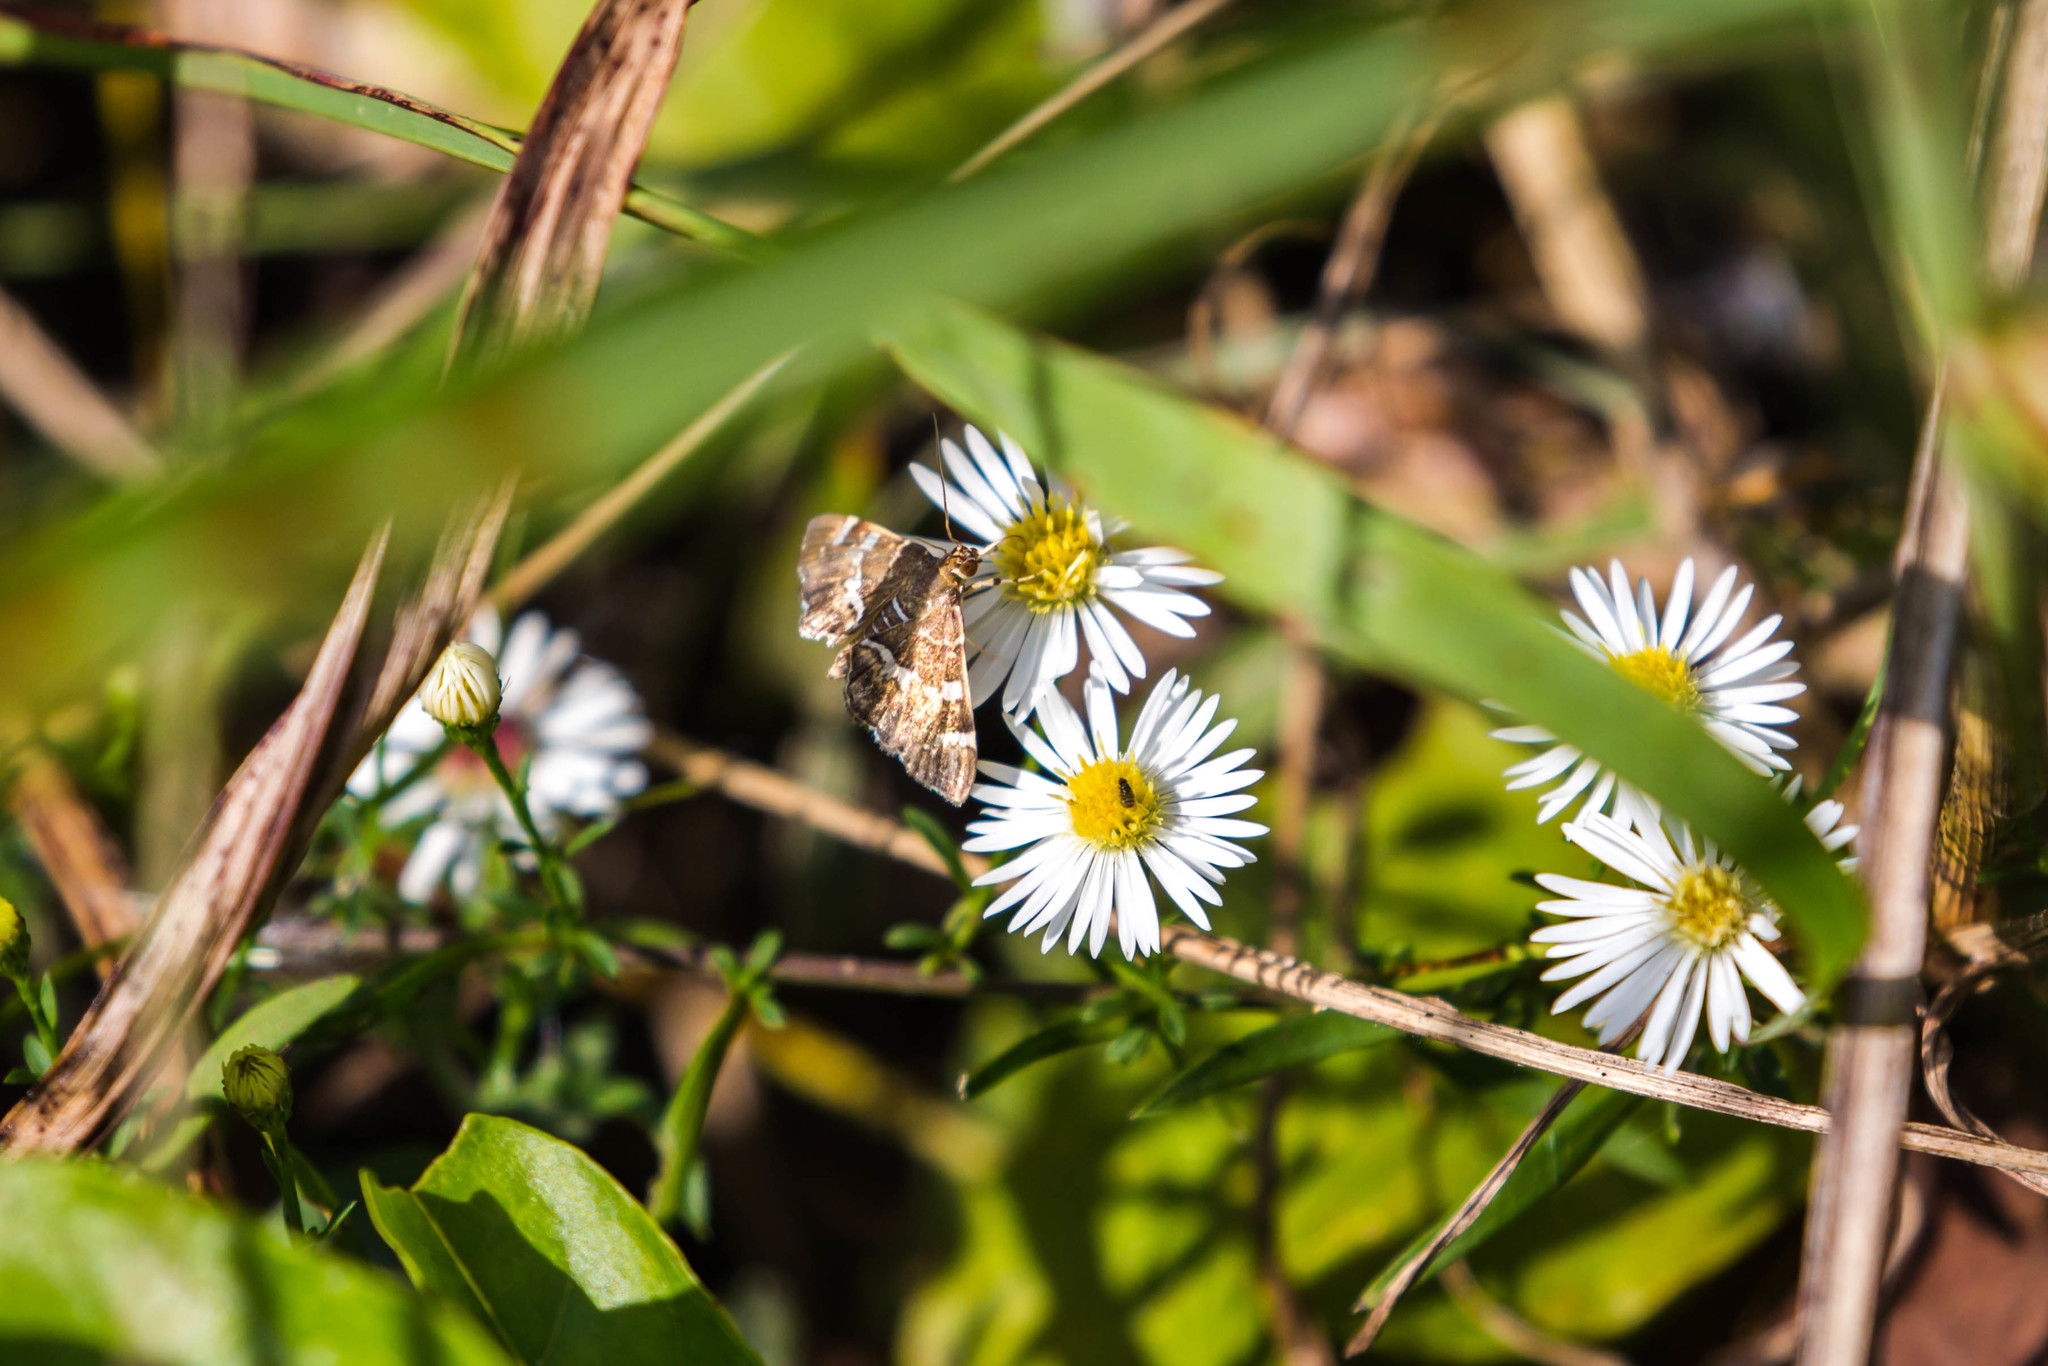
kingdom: Animalia
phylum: Arthropoda
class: Insecta
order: Lepidoptera
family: Crambidae
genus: Hymenia
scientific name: Hymenia perspectalis
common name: Spotted beet webworm
